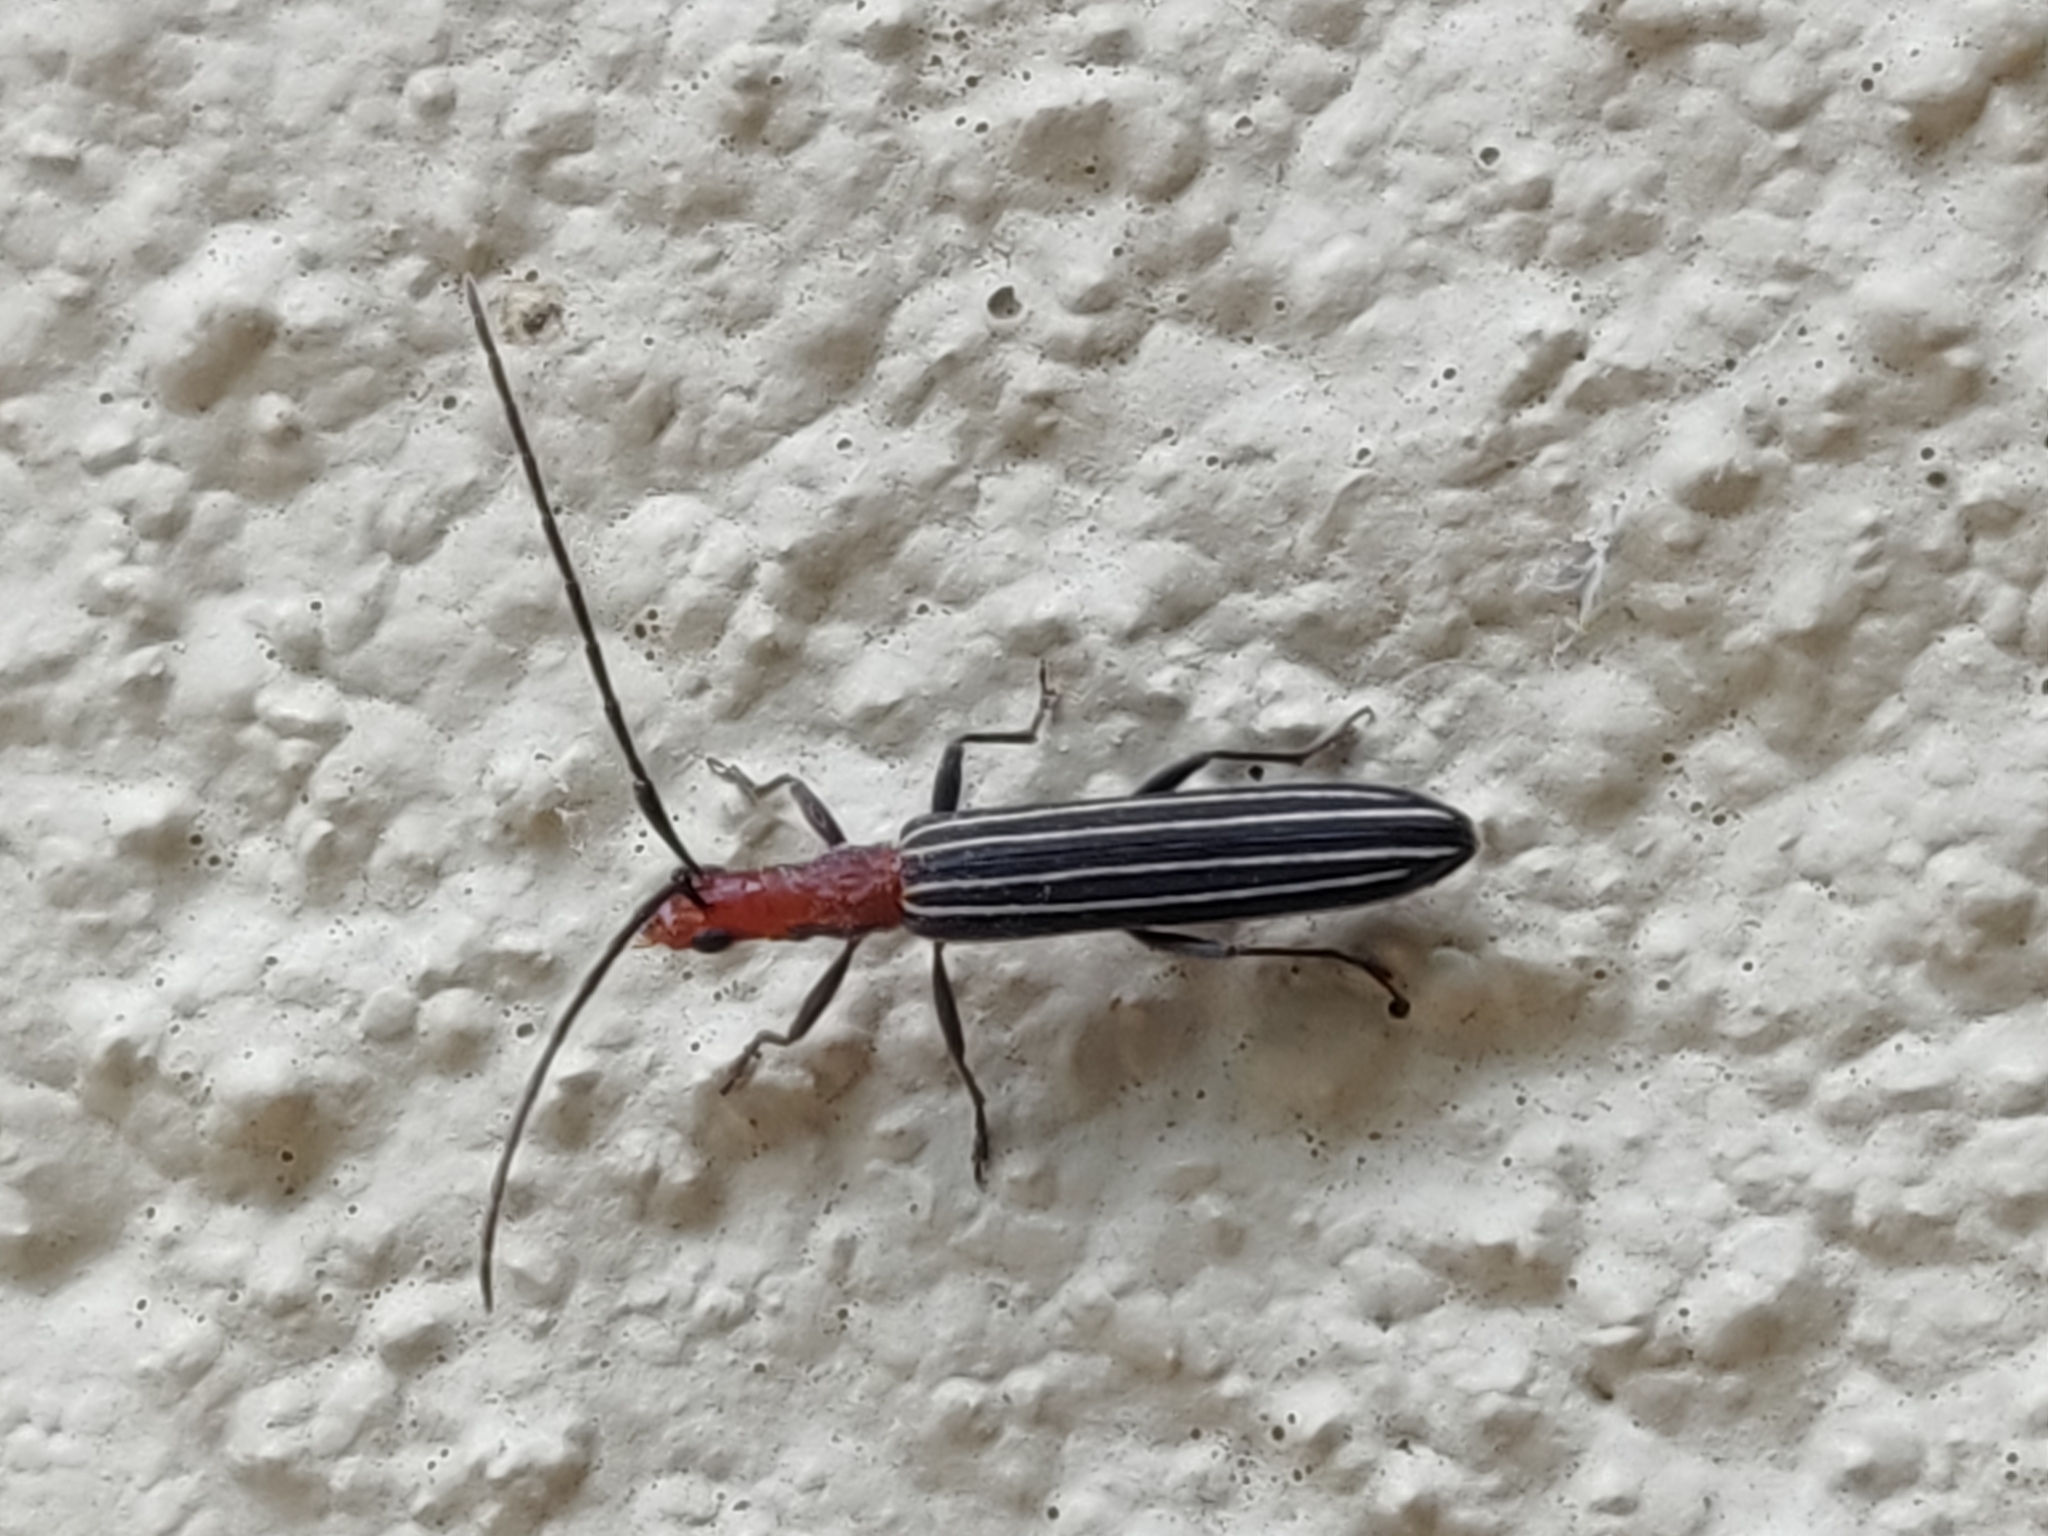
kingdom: Animalia
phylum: Arthropoda
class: Insecta
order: Coleoptera
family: Cerambycidae
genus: Syllitus
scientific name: Syllitus rectus
